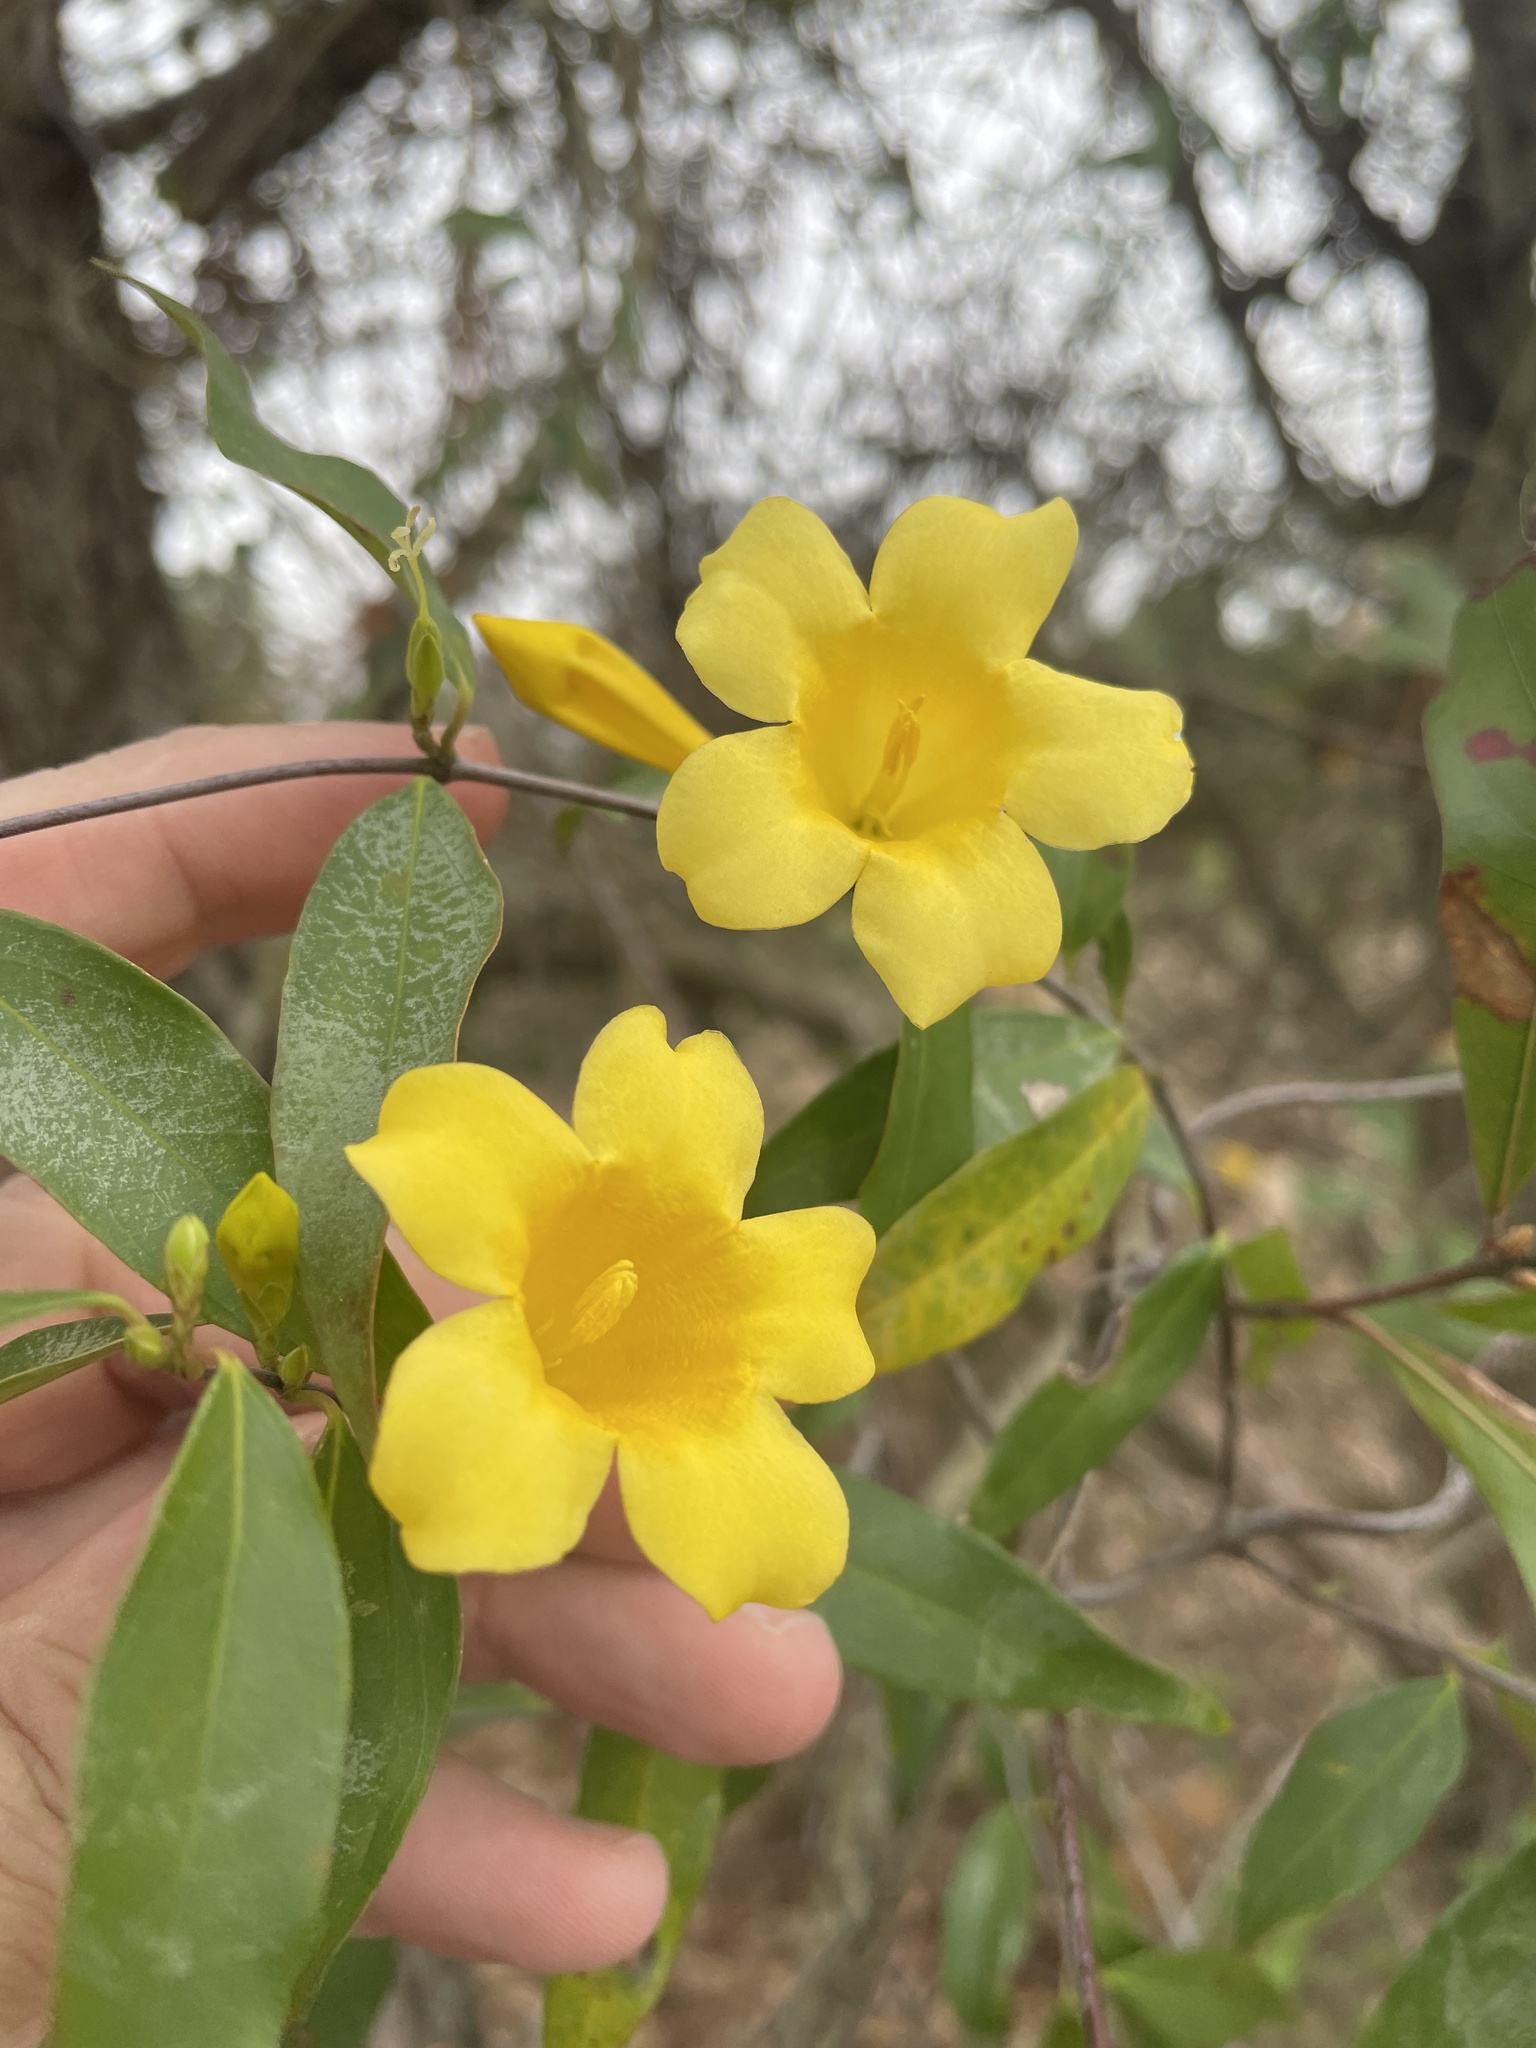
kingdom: Plantae
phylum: Tracheophyta
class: Magnoliopsida
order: Gentianales
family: Gelsemiaceae
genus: Gelsemium
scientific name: Gelsemium sempervirens
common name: Carolina-jasmine
